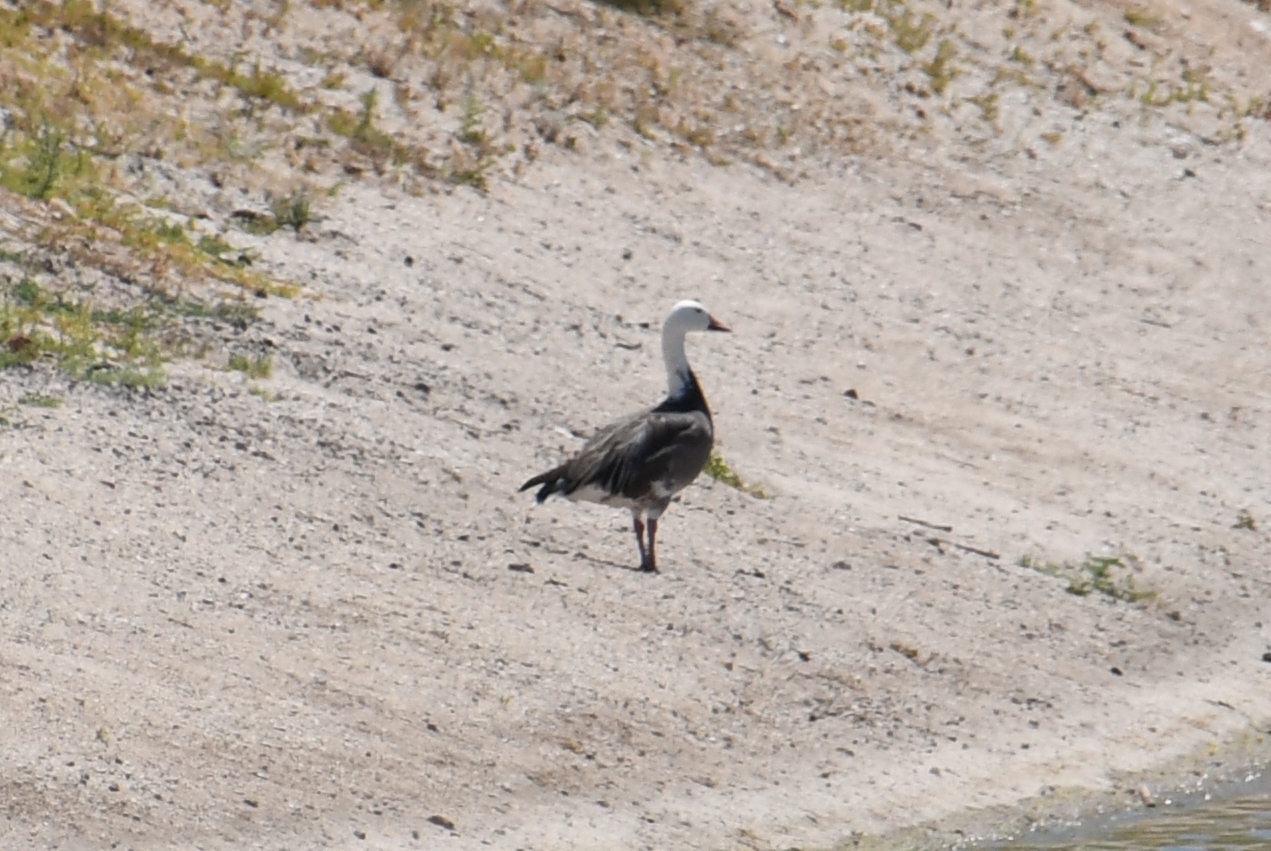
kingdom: Animalia
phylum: Chordata
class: Aves
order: Anseriformes
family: Anatidae
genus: Anser
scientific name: Anser caerulescens
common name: Snow goose
